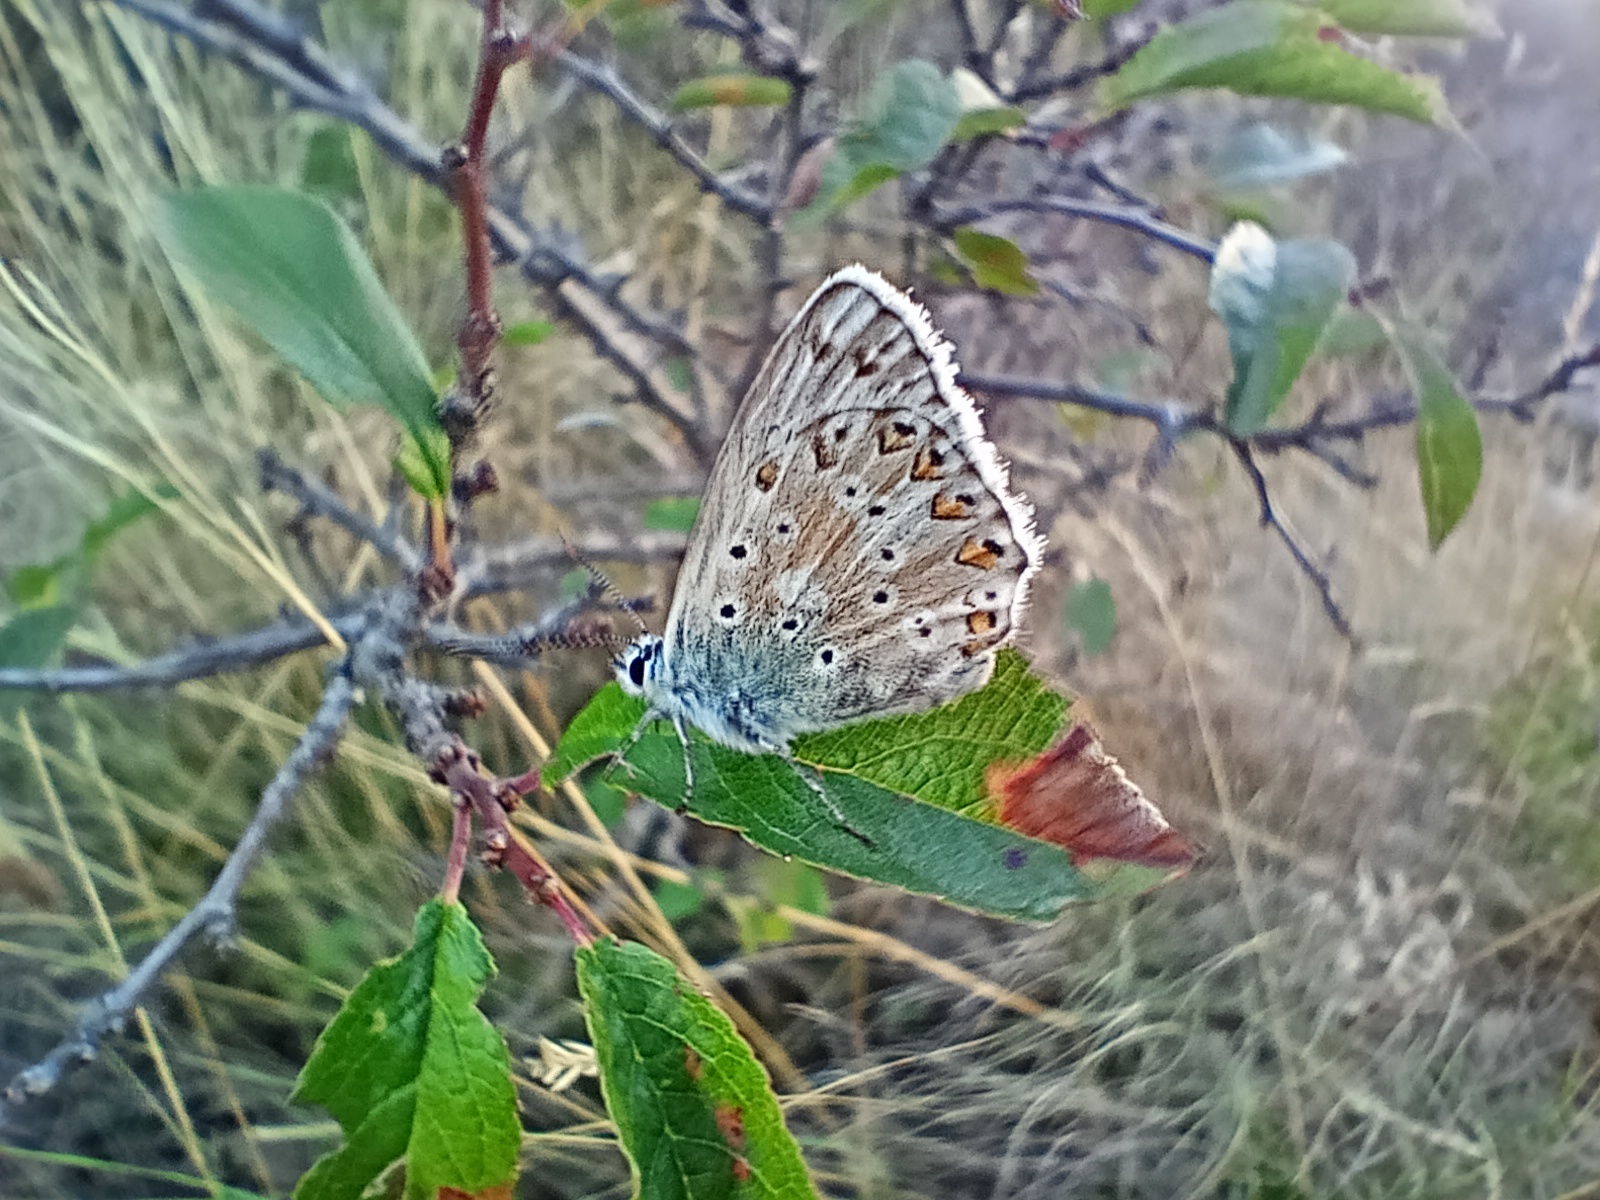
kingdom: Animalia
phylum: Arthropoda
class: Insecta
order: Lepidoptera
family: Lycaenidae
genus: Lysandra
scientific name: Lysandra coridon
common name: Chalkhill blue
